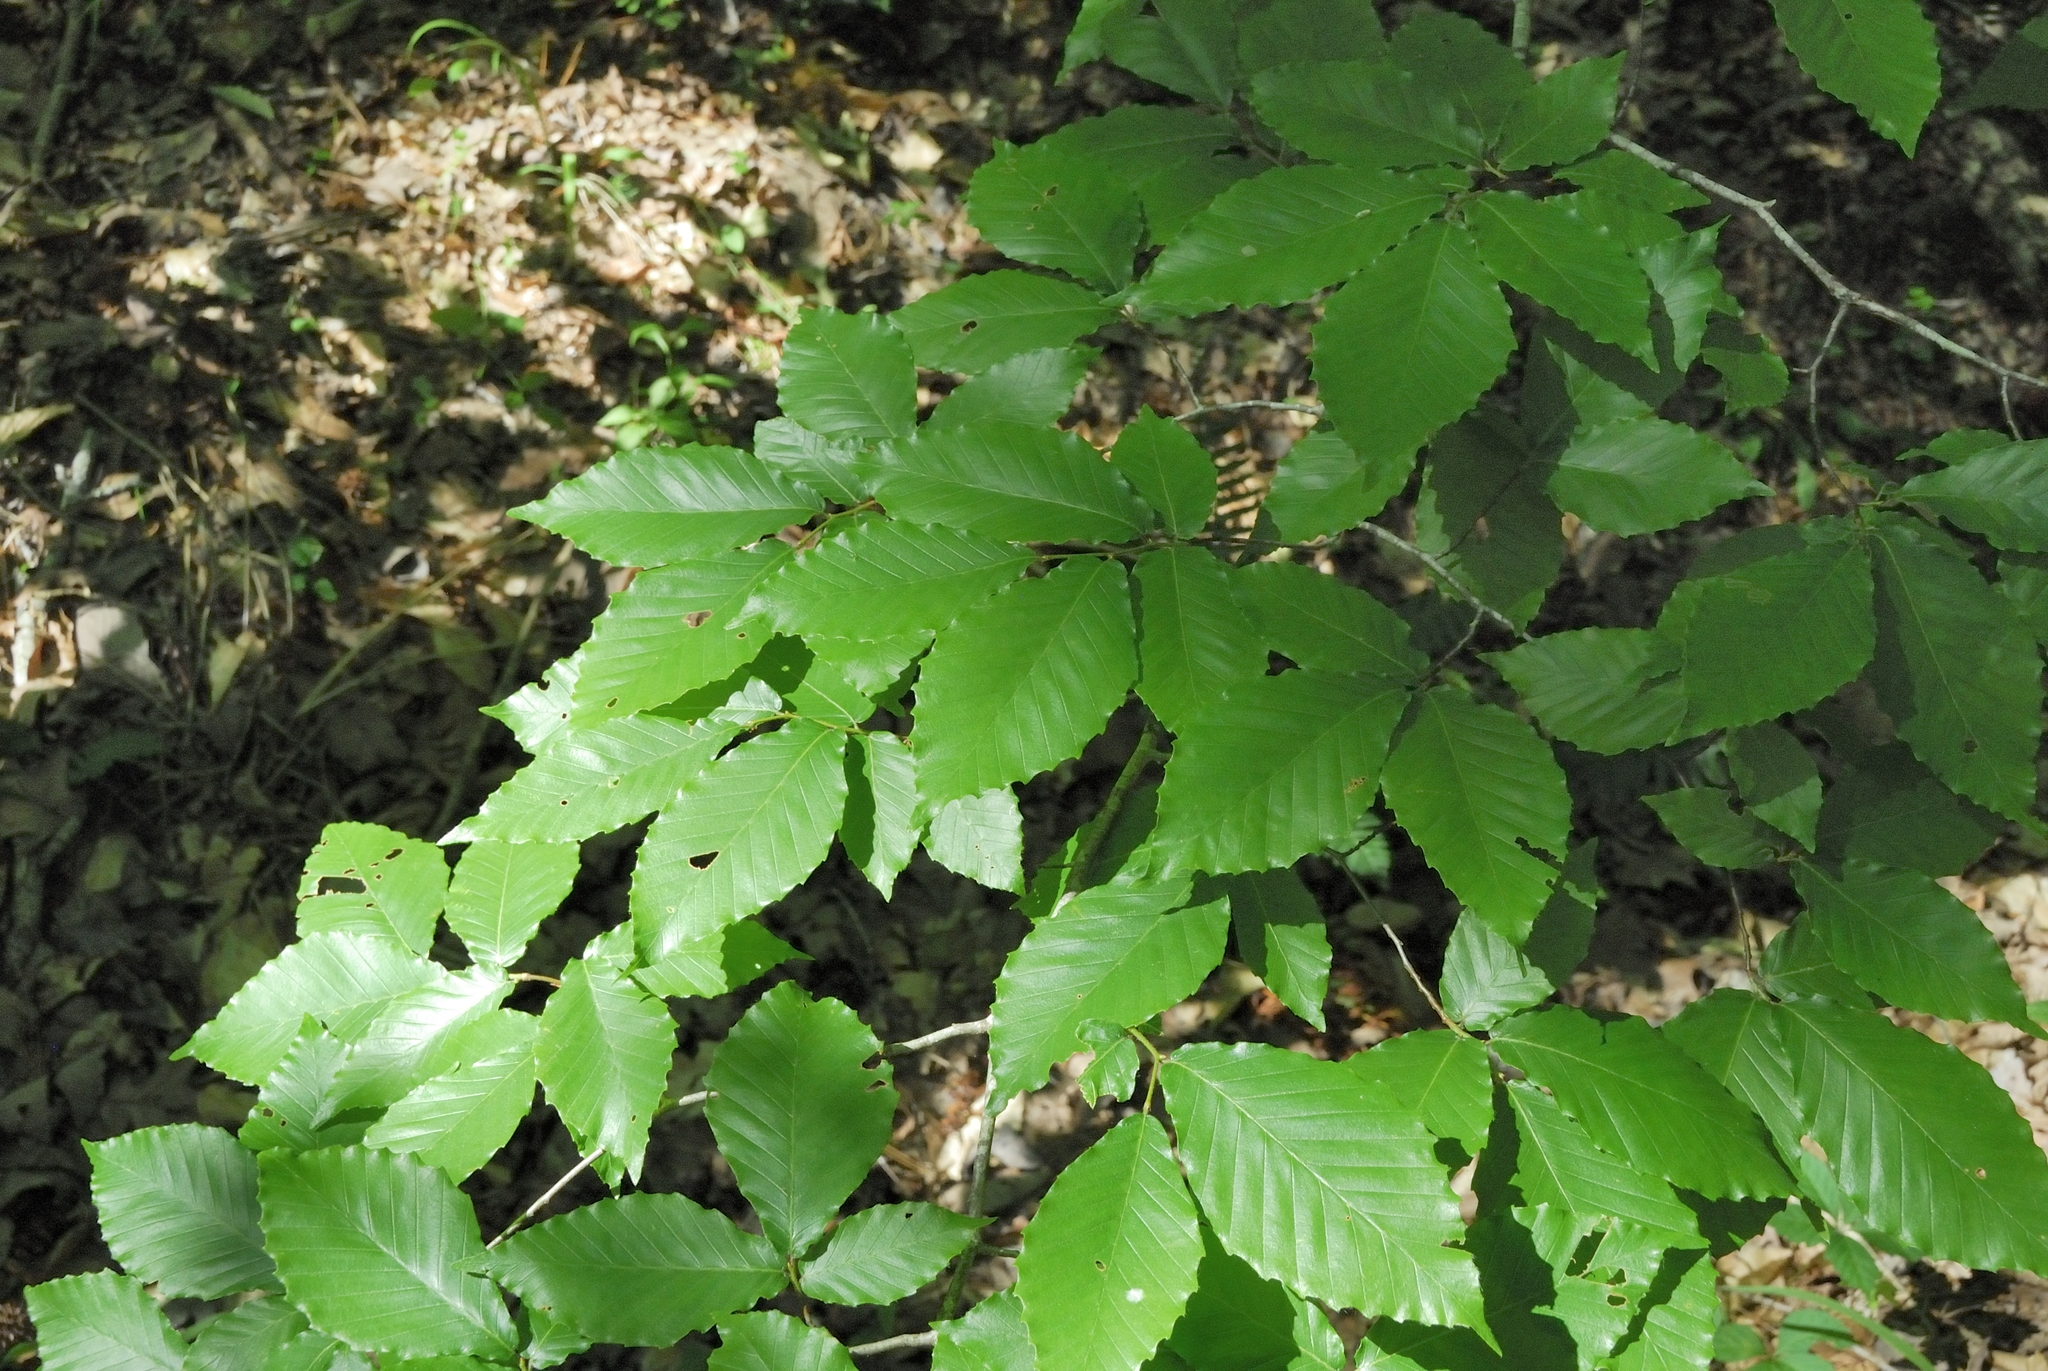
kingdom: Plantae
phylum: Tracheophyta
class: Magnoliopsida
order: Fagales
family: Fagaceae
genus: Fagus
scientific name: Fagus grandifolia
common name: American beech
